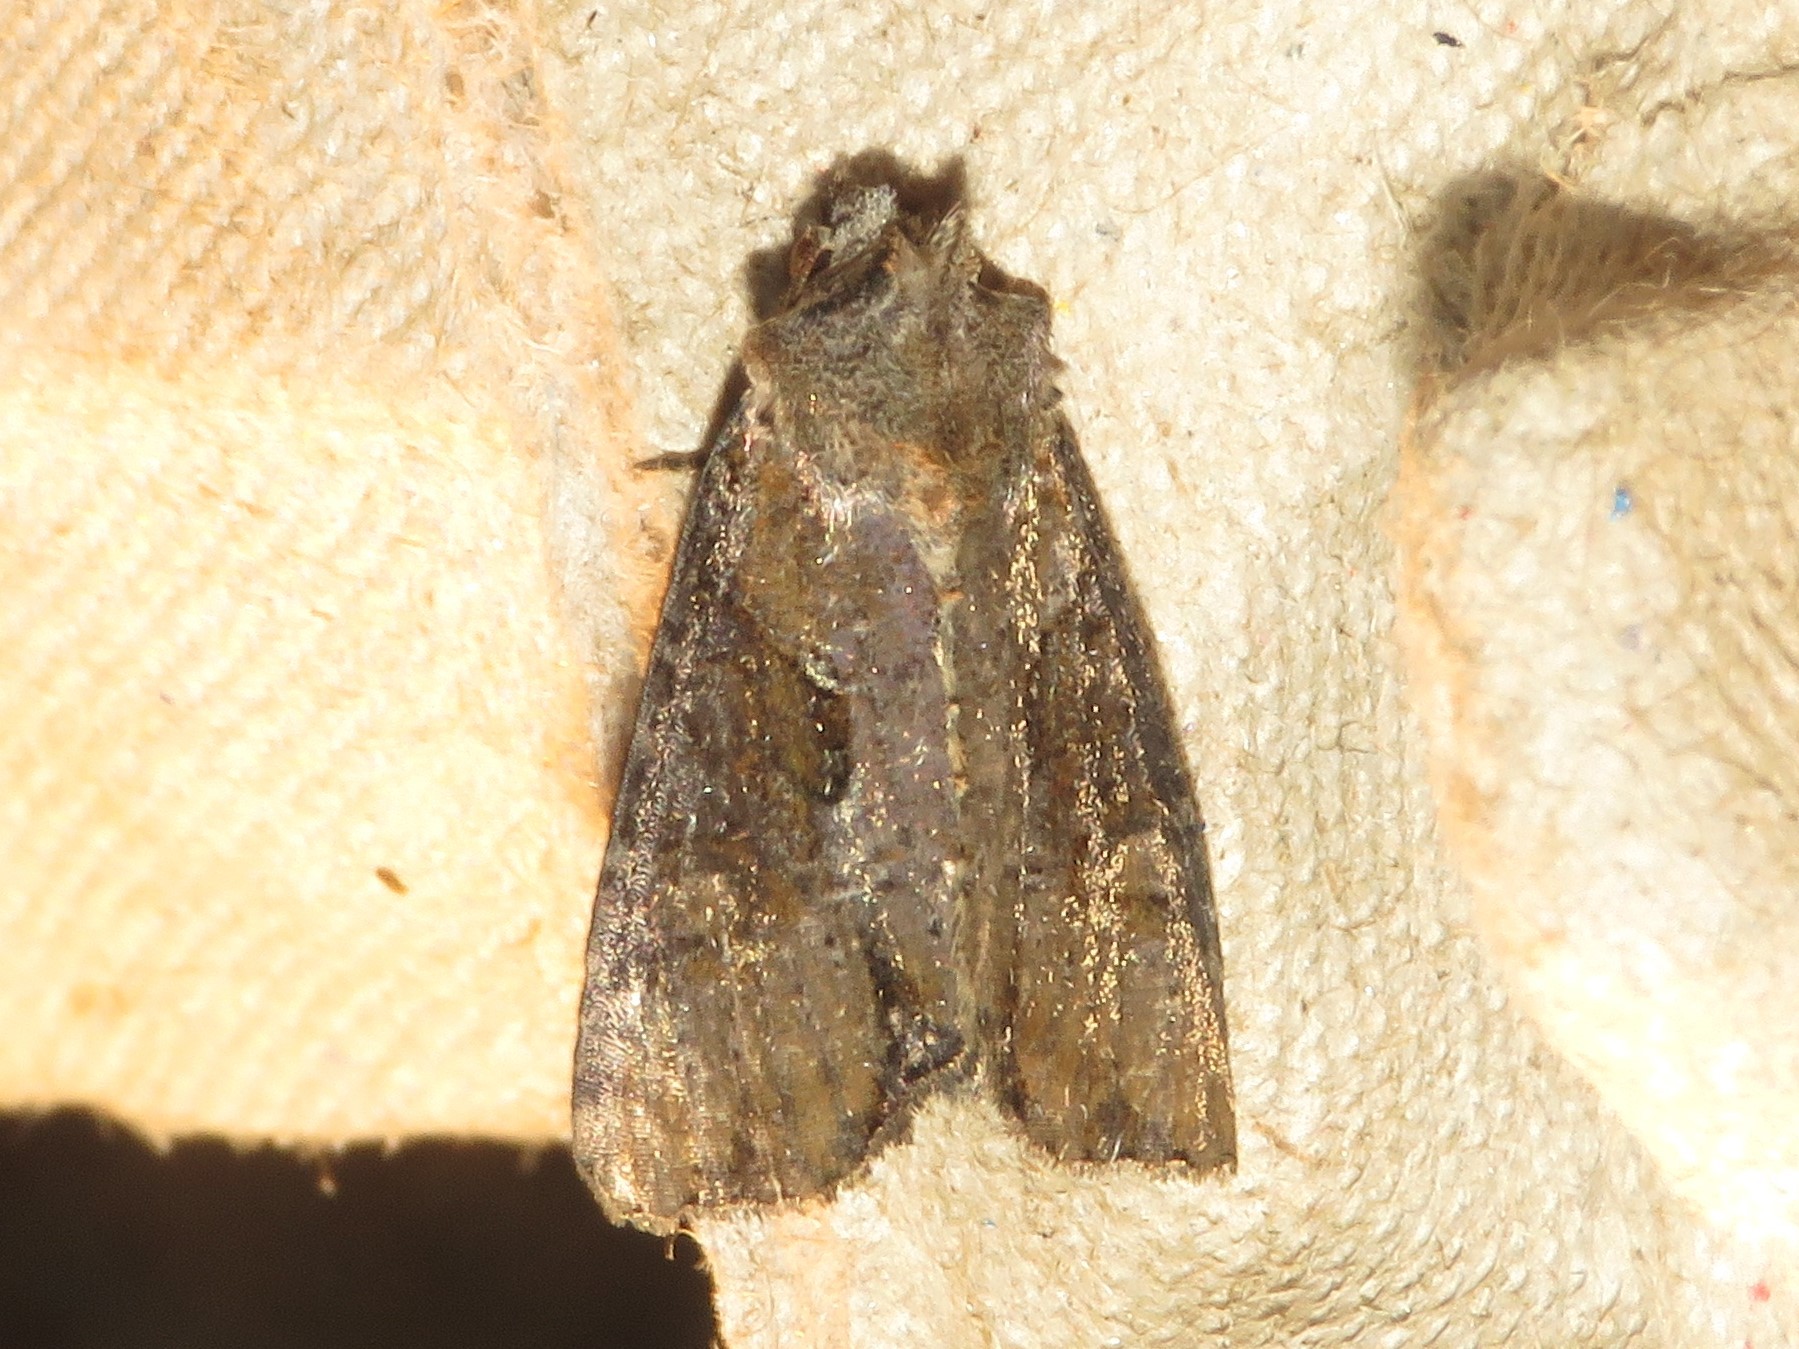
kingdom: Animalia
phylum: Arthropoda
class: Insecta
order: Lepidoptera
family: Noctuidae
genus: Lateroligia
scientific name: Lateroligia ophiogramma
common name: Double lobed
